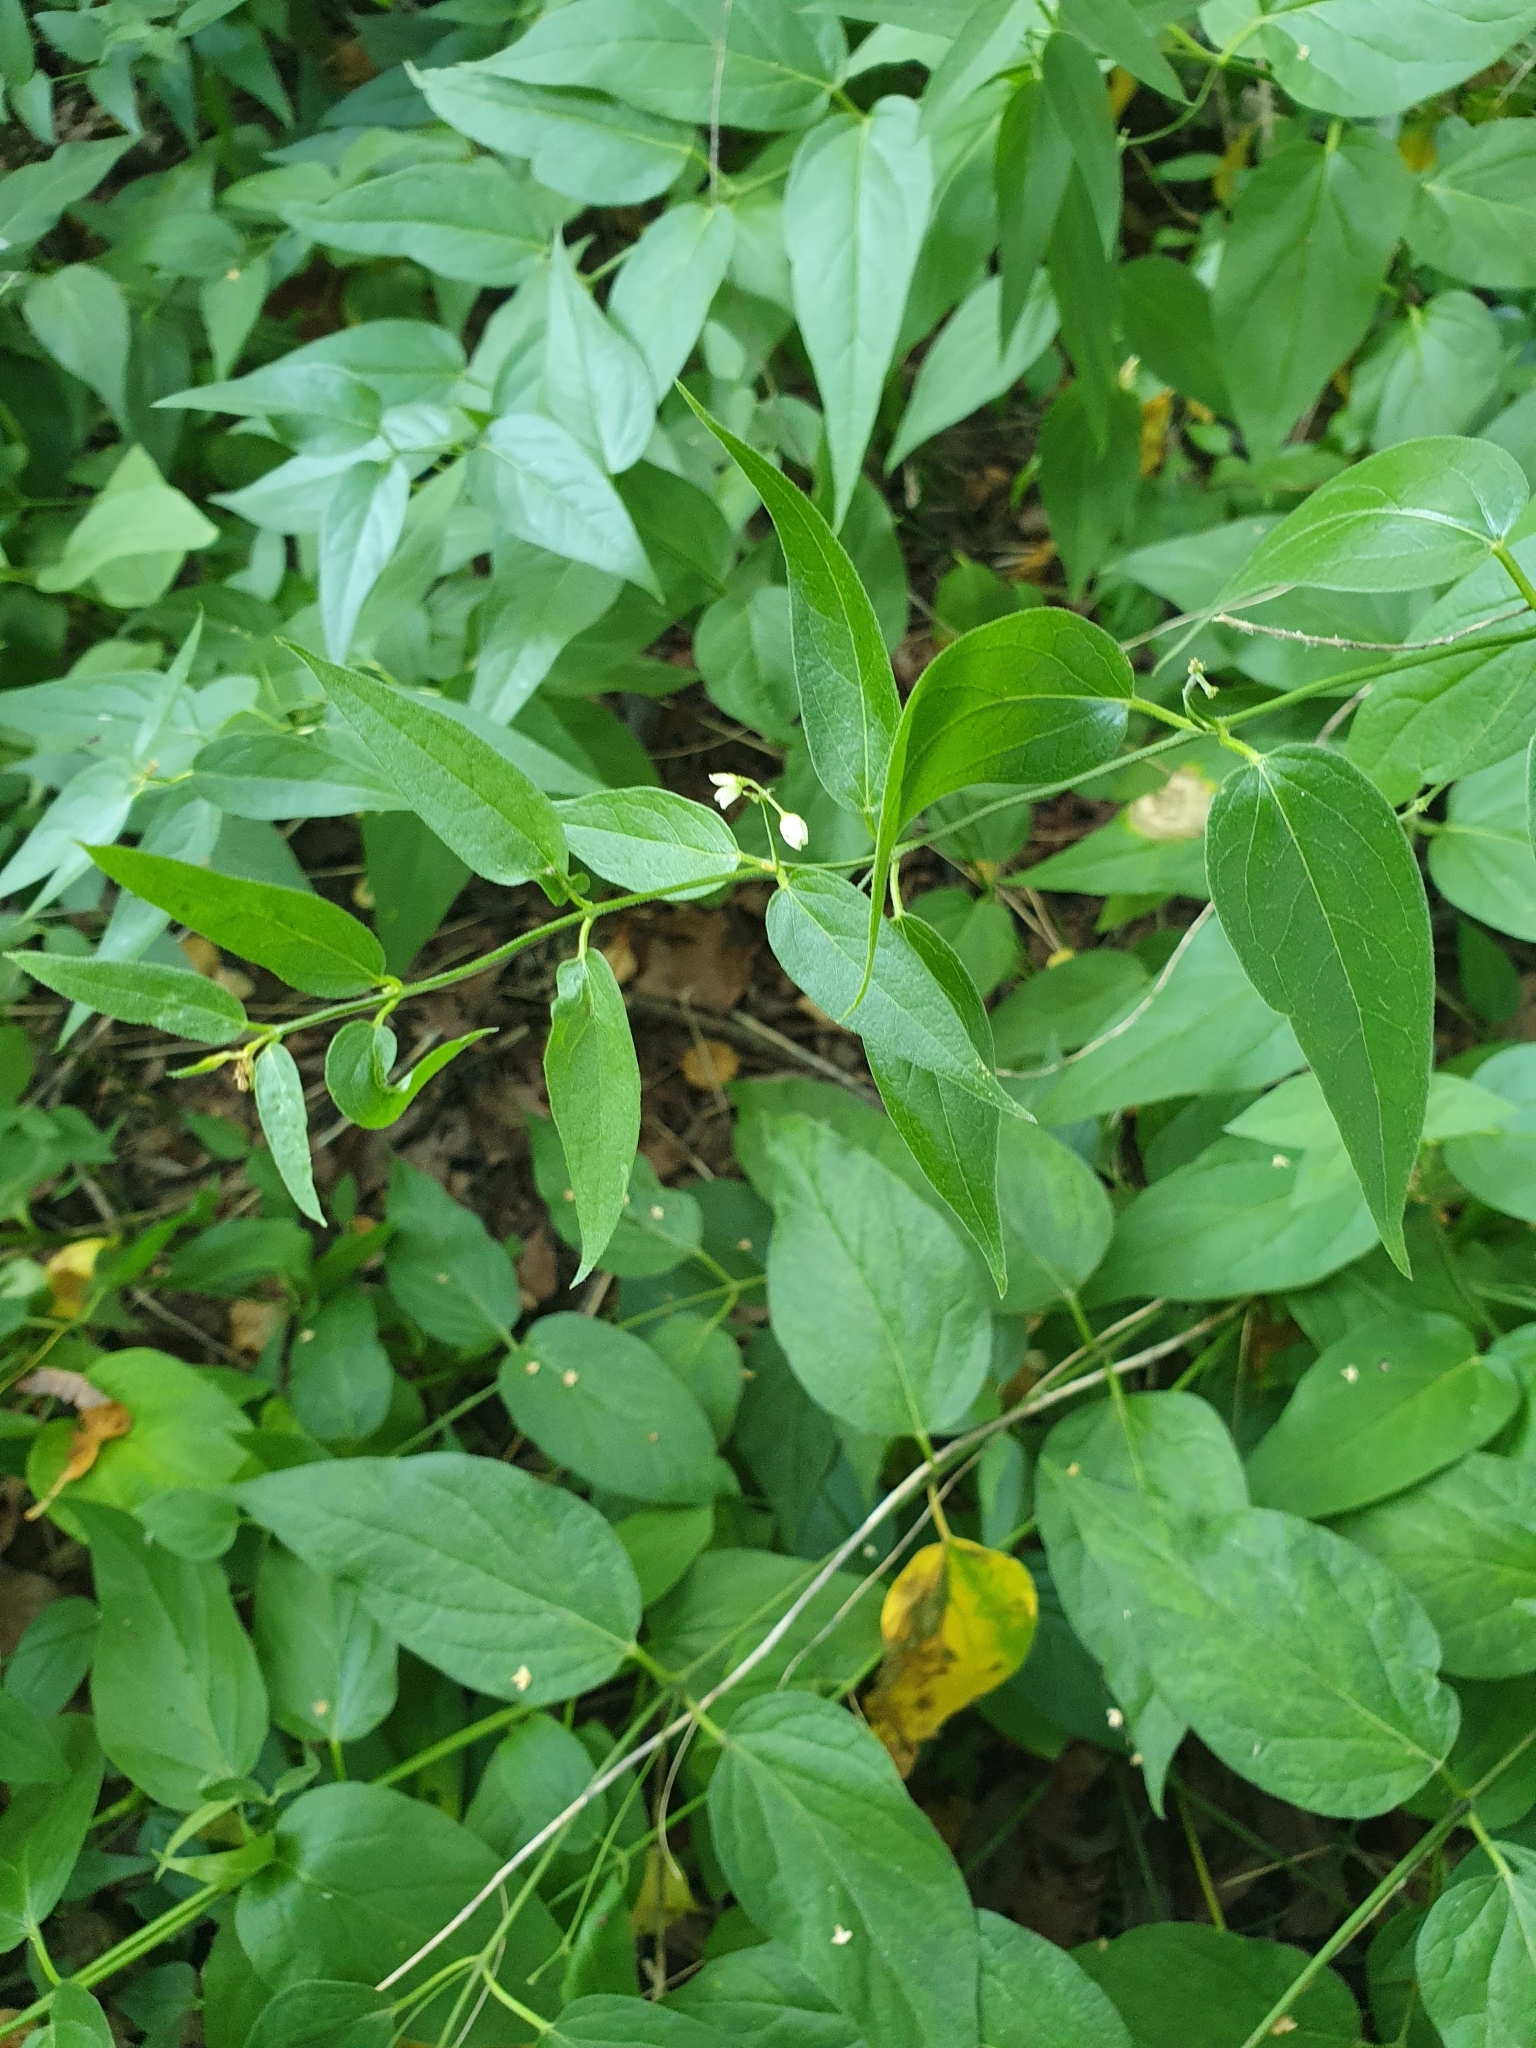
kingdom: Plantae
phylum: Tracheophyta
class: Magnoliopsida
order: Gentianales
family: Apocynaceae
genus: Vincetoxicum
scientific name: Vincetoxicum hirundinaria
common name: White swallowwort
